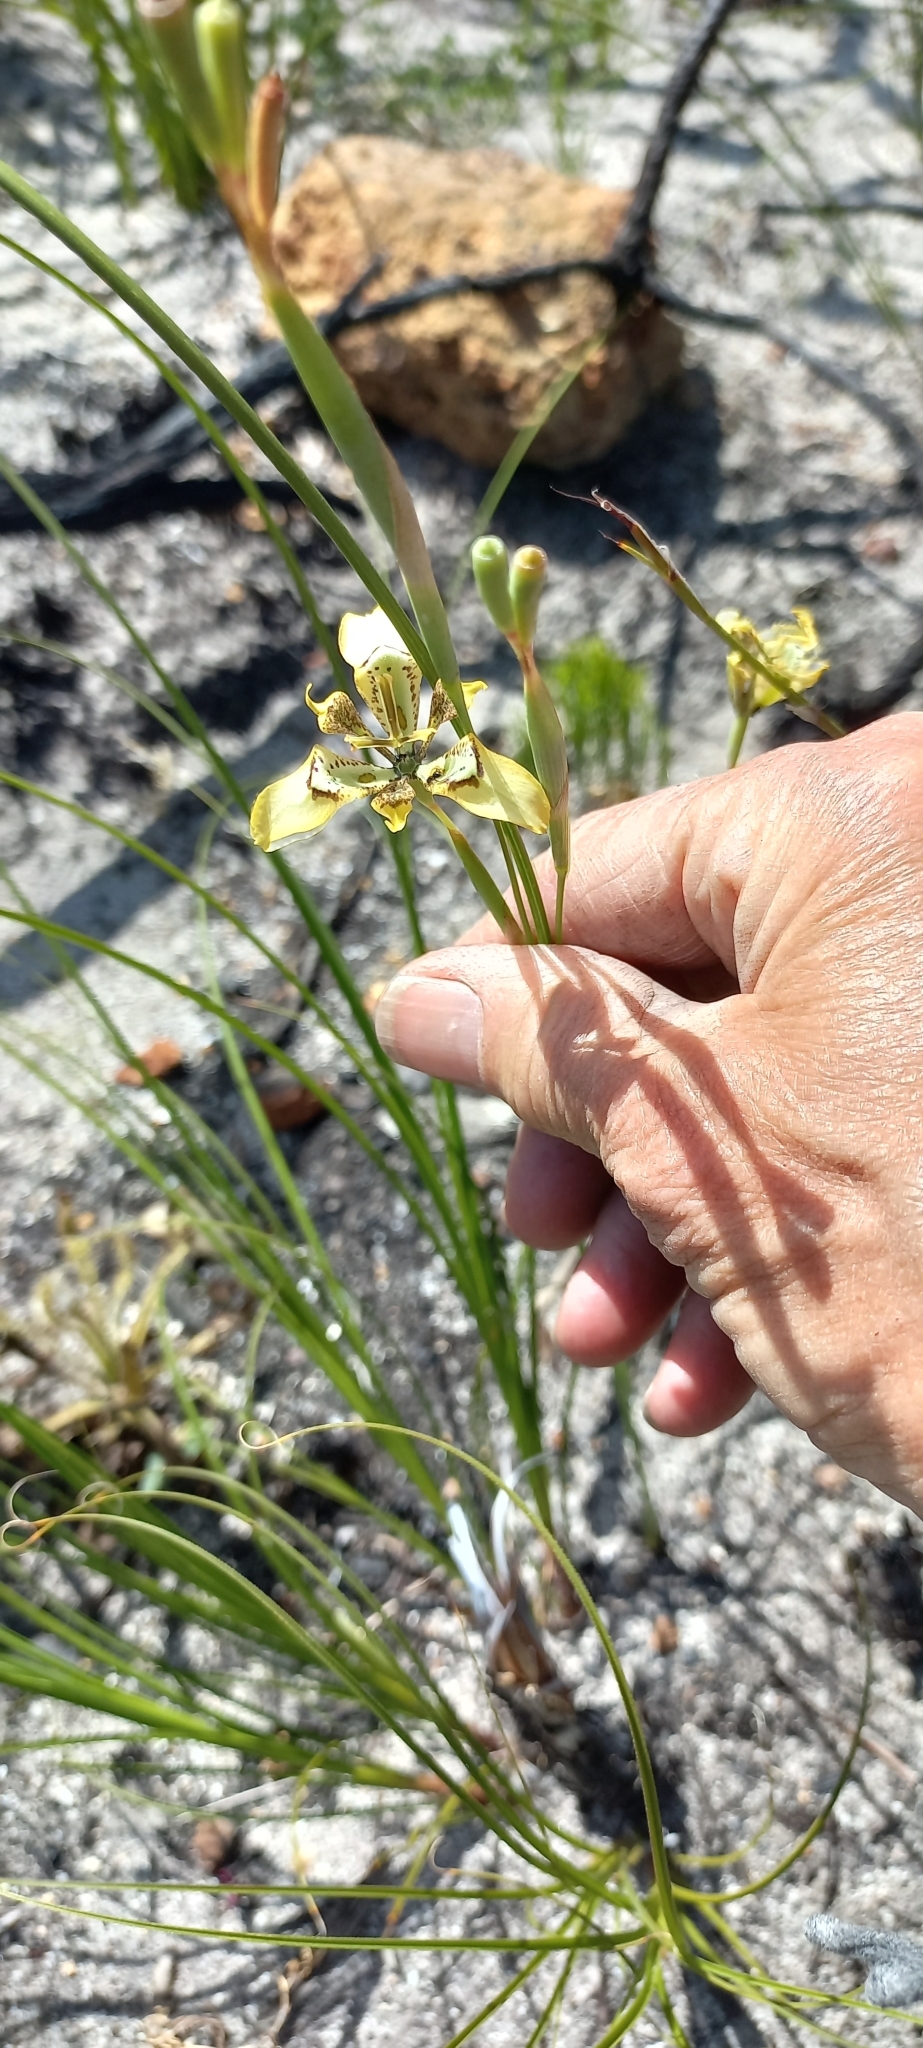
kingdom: Plantae
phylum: Tracheophyta
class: Liliopsida
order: Asparagales
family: Iridaceae
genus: Moraea
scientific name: Moraea deltoidea
